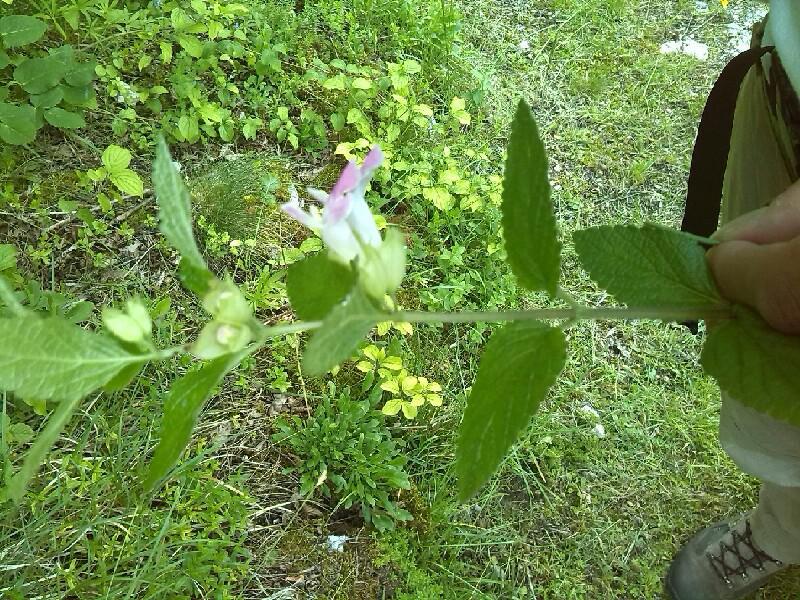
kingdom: Plantae
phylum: Tracheophyta
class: Magnoliopsida
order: Lamiales
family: Lamiaceae
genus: Melittis
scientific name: Melittis melissophyllum
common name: Bastard balm
